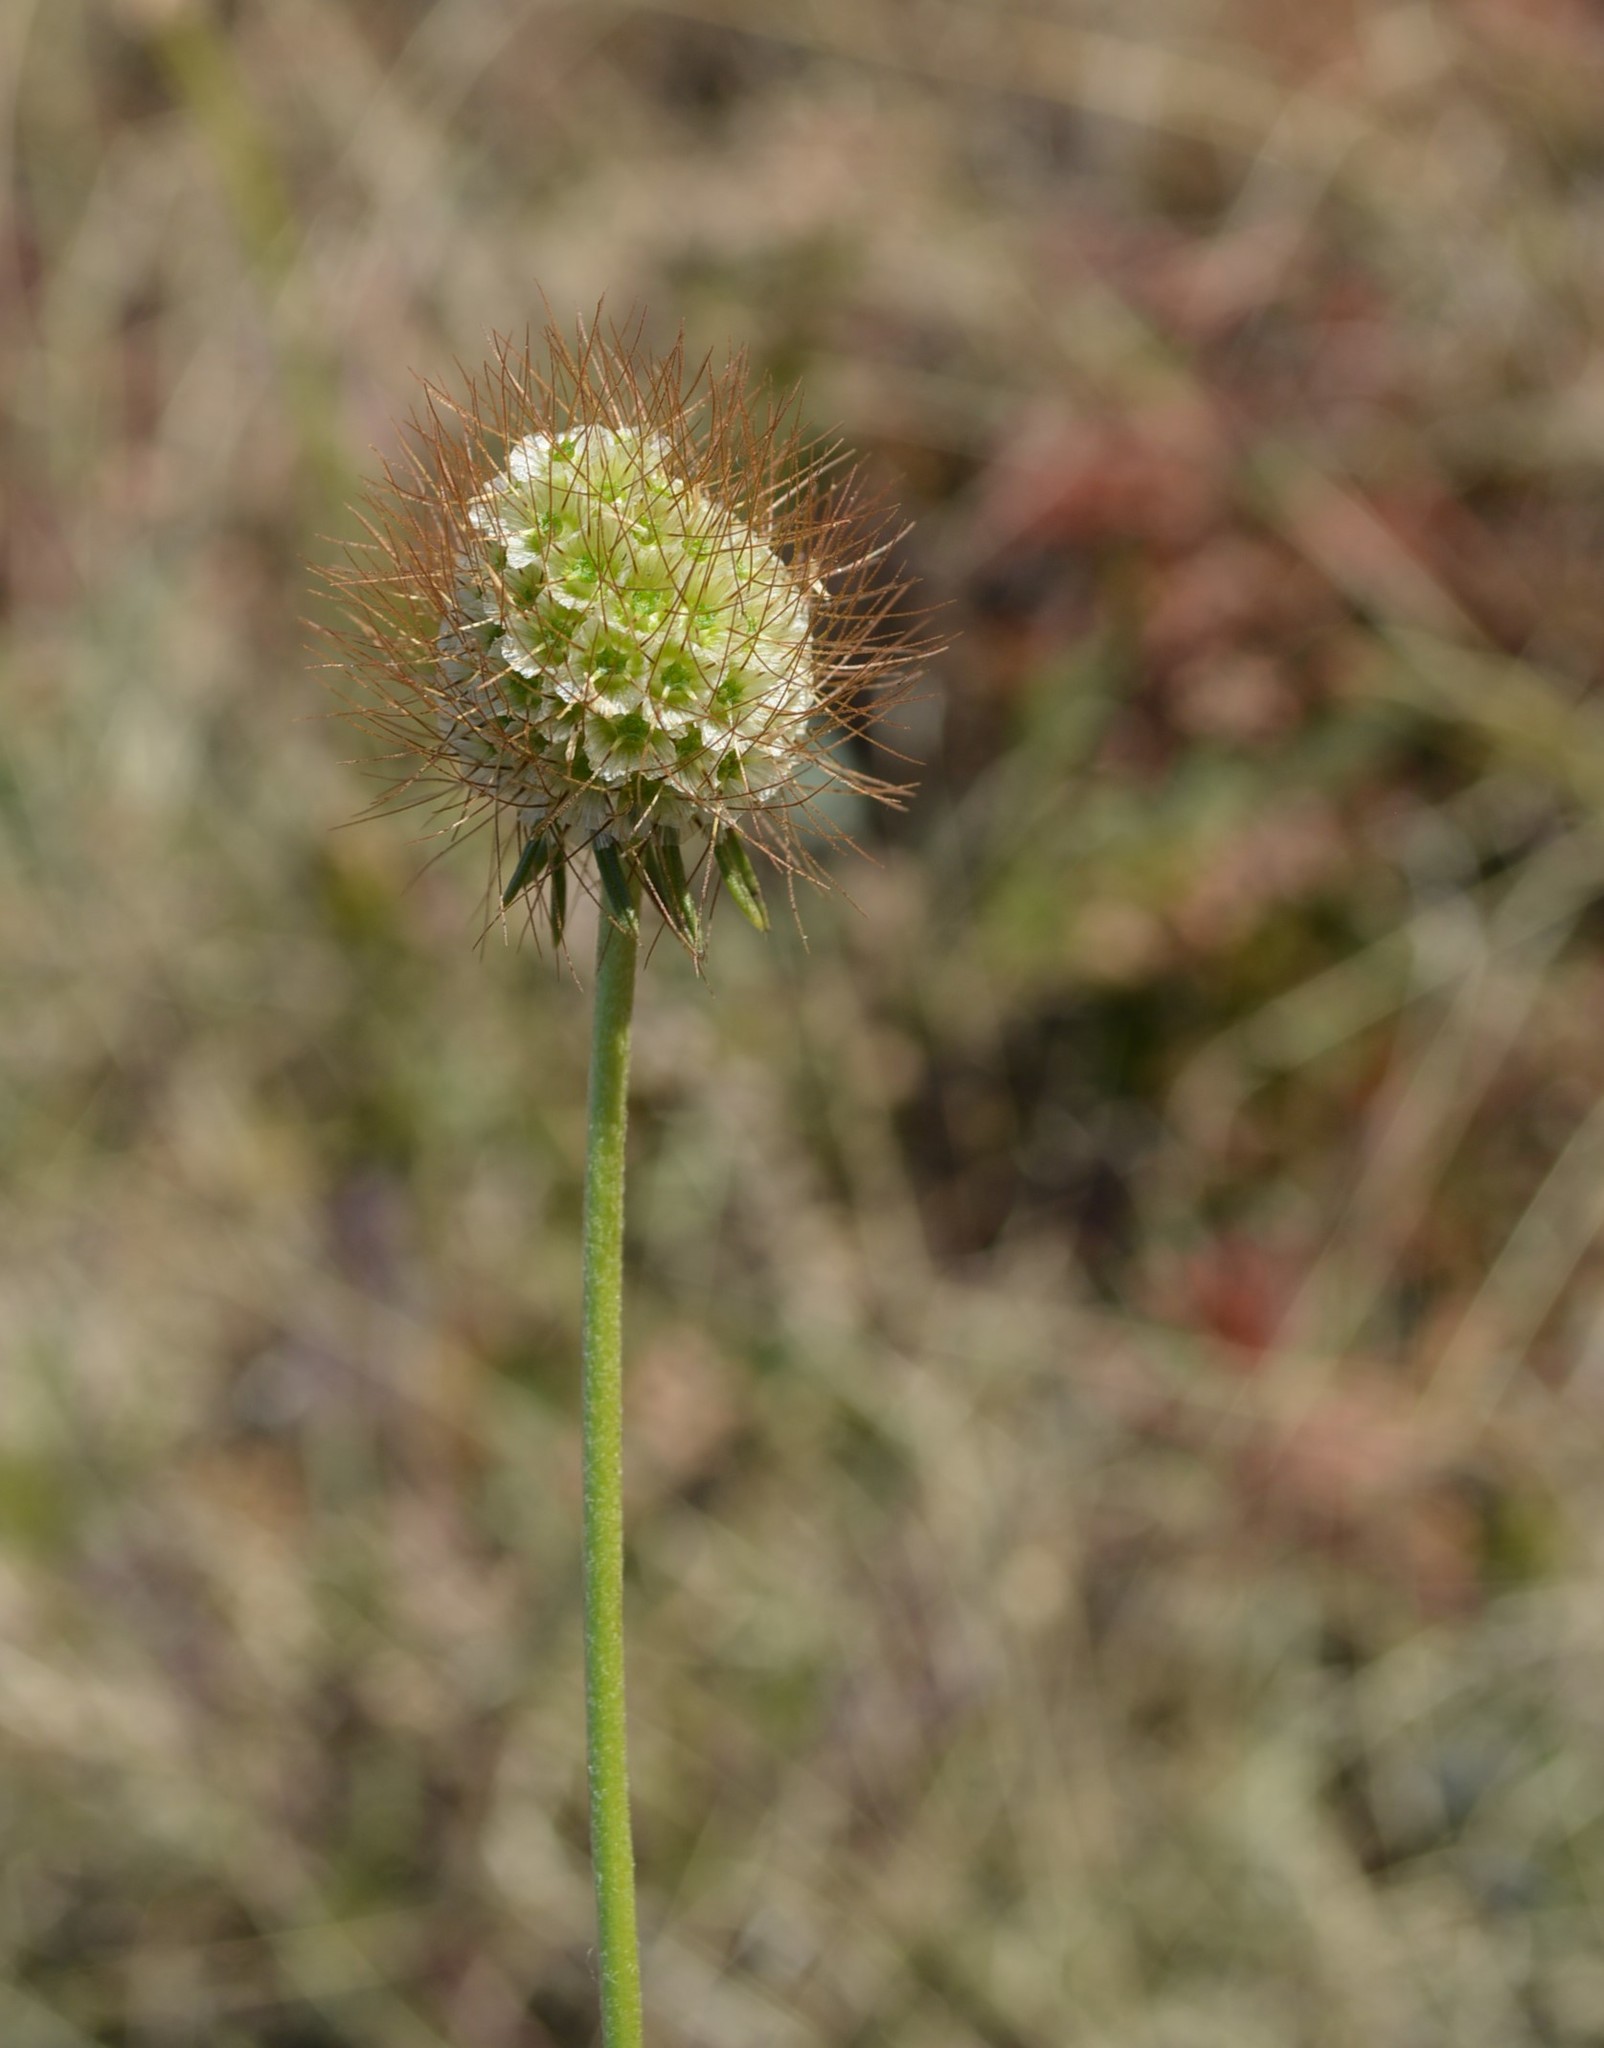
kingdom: Plantae
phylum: Tracheophyta
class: Magnoliopsida
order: Dipsacales
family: Caprifoliaceae
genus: Scabiosa
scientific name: Scabiosa columbaria
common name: Small scabious
